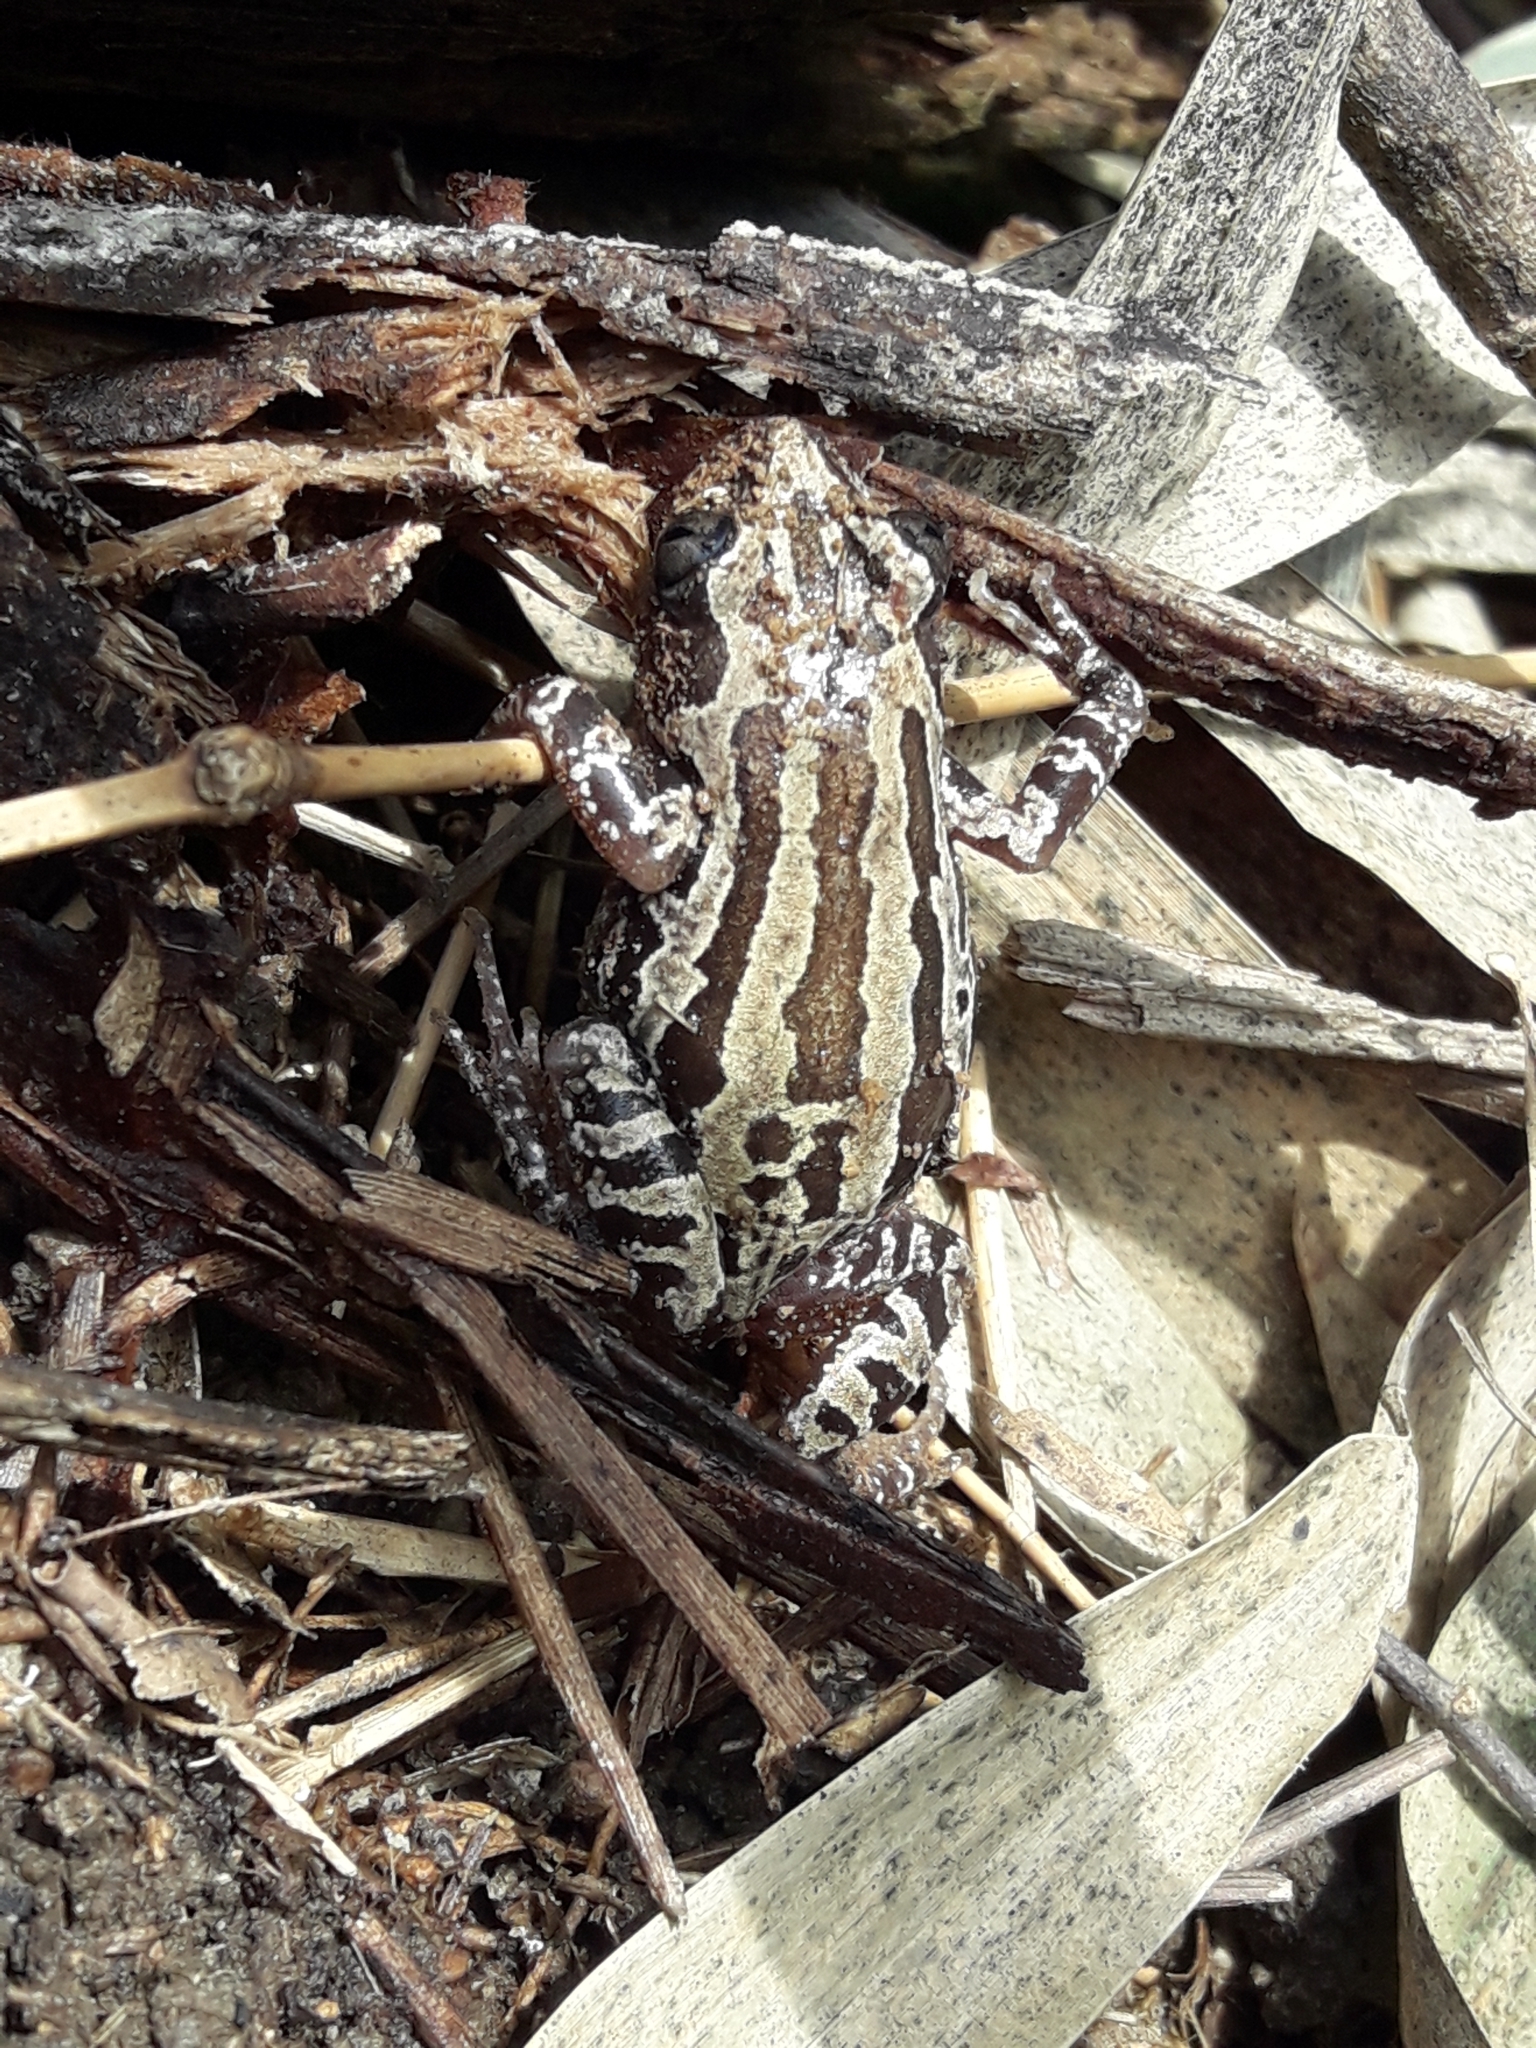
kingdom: Animalia
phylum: Chordata
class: Amphibia
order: Anura
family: Hyperoliidae
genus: Kassina
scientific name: Kassina senegalensis
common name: Senegal land frog
